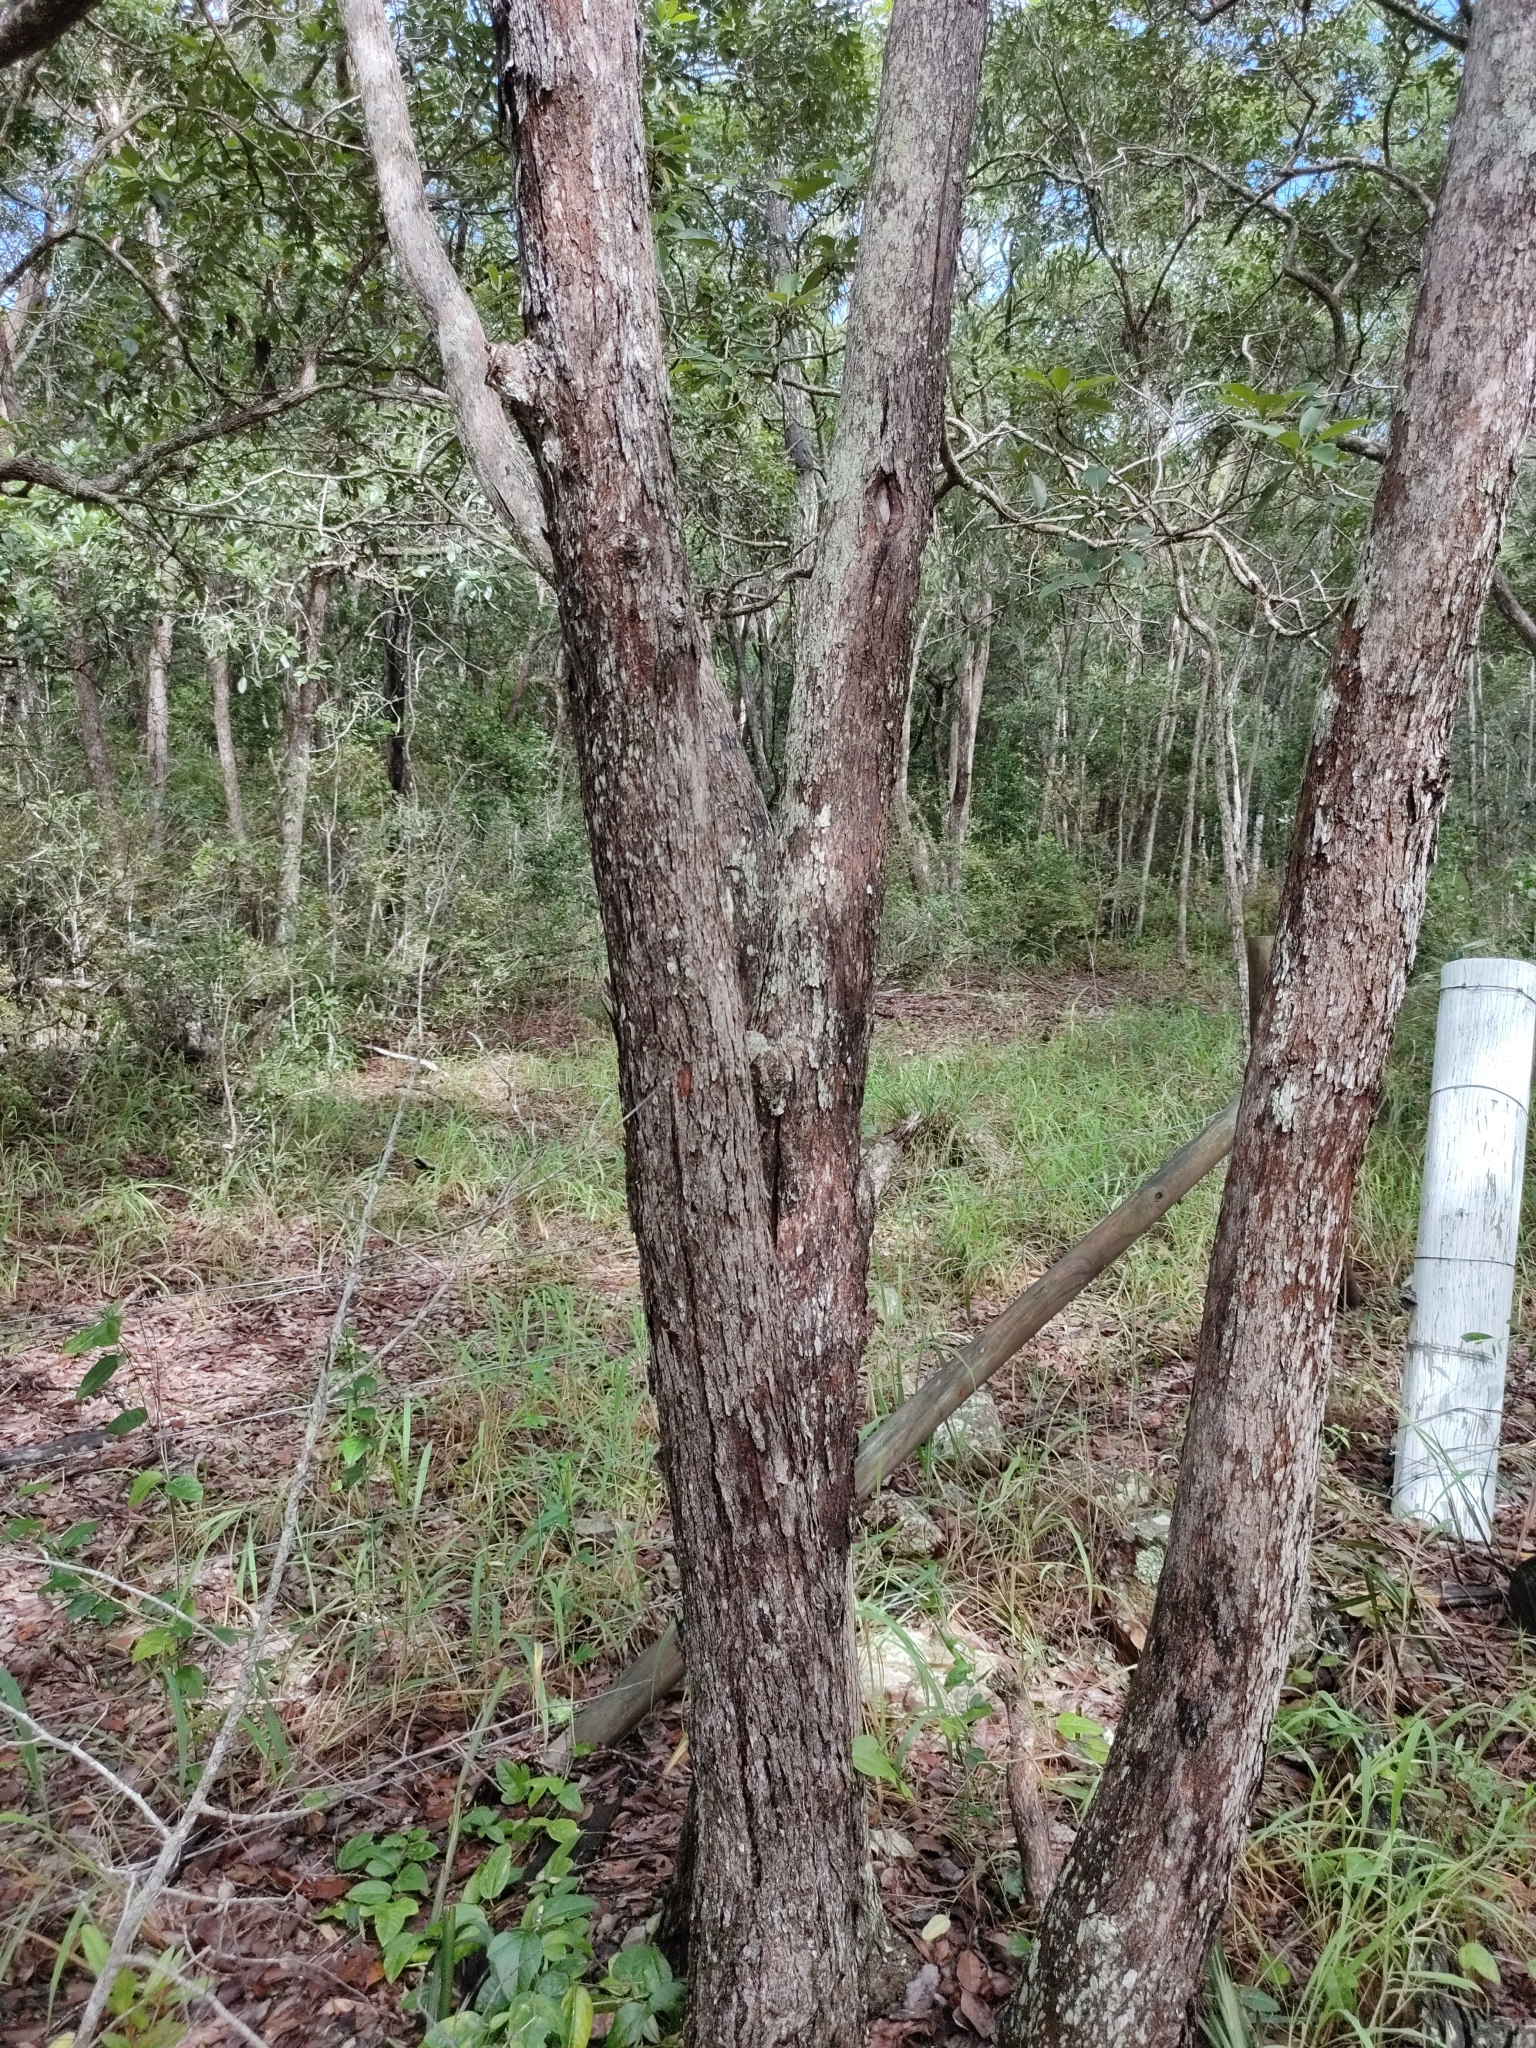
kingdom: Plantae
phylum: Tracheophyta
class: Magnoliopsida
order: Myrtales
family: Myrtaceae
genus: Lophostemon
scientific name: Lophostemon confertus
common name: Brisbane box
